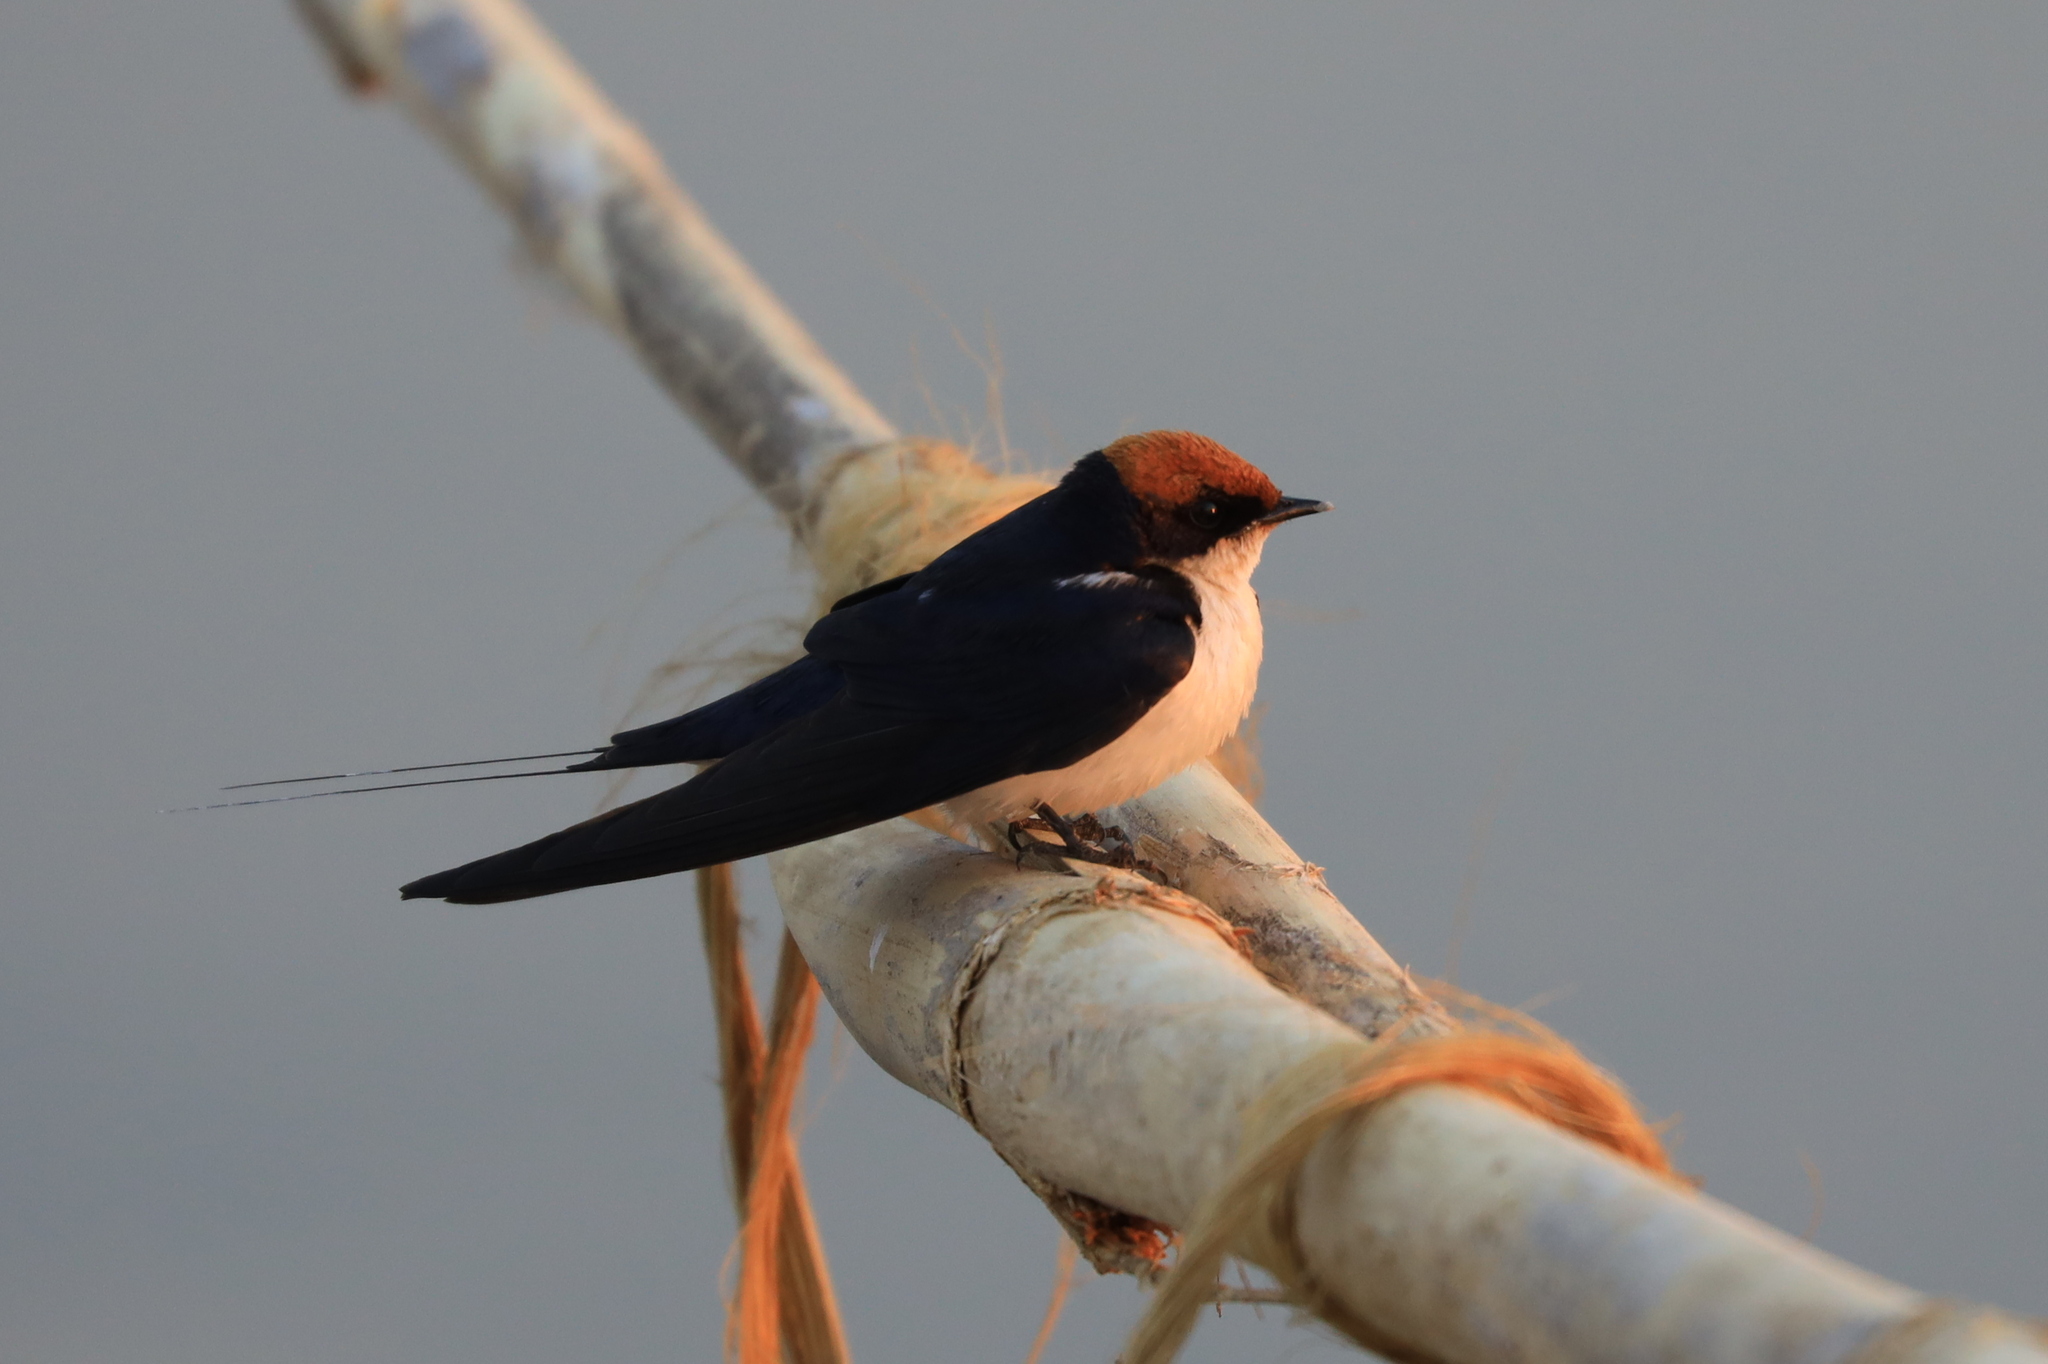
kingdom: Animalia
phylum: Chordata
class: Aves
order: Passeriformes
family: Hirundinidae
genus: Hirundo
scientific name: Hirundo smithii
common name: Wire-tailed swallow
